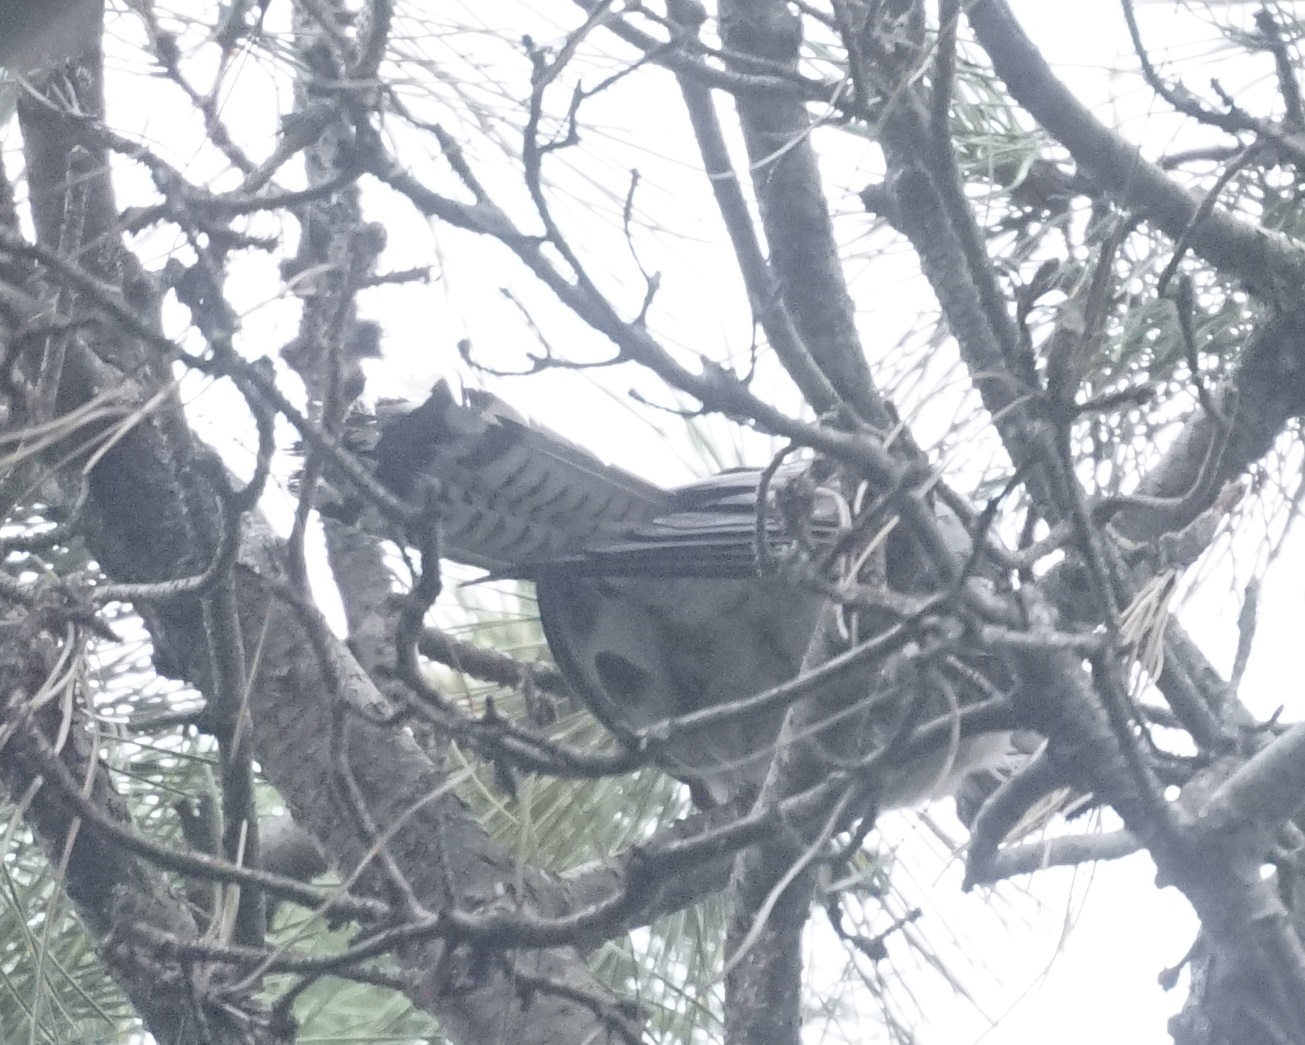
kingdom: Animalia
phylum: Chordata
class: Aves
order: Cuculiformes
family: Cuculidae
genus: Scythrops
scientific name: Scythrops novaehollandiae
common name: Channel-billed cuckoo
